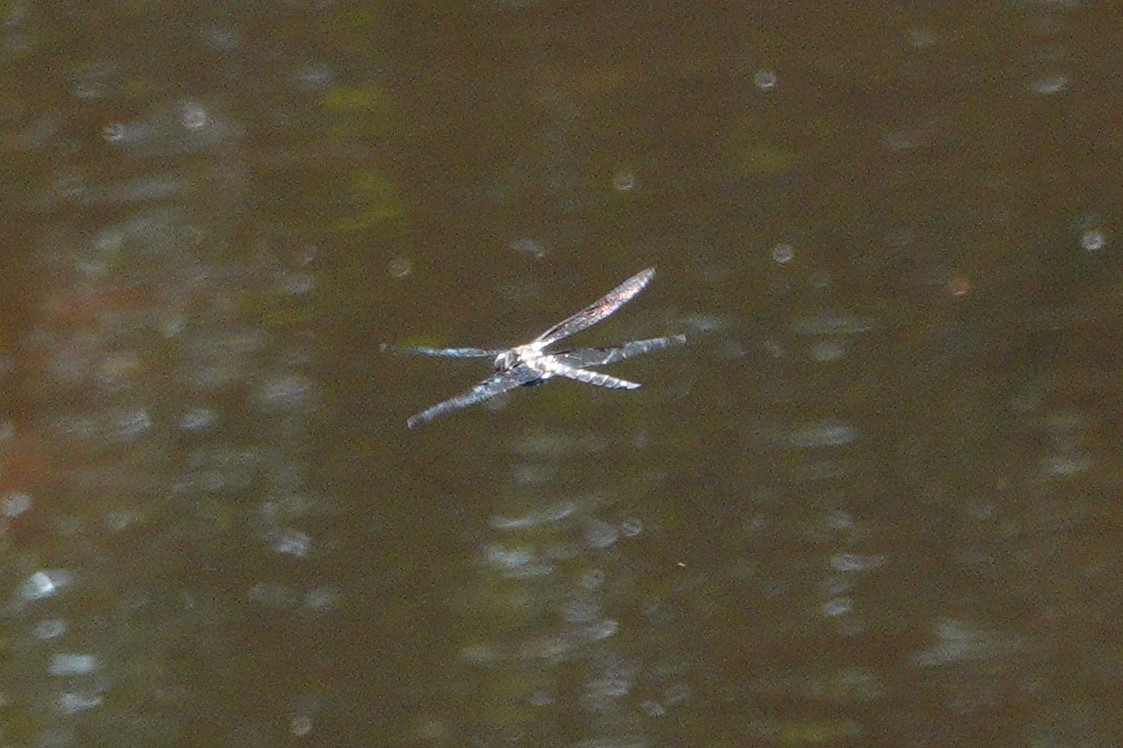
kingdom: Animalia
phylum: Arthropoda
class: Insecta
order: Odonata
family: Corduliidae
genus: Epitheca
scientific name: Epitheca princeps
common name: Prince baskettail
